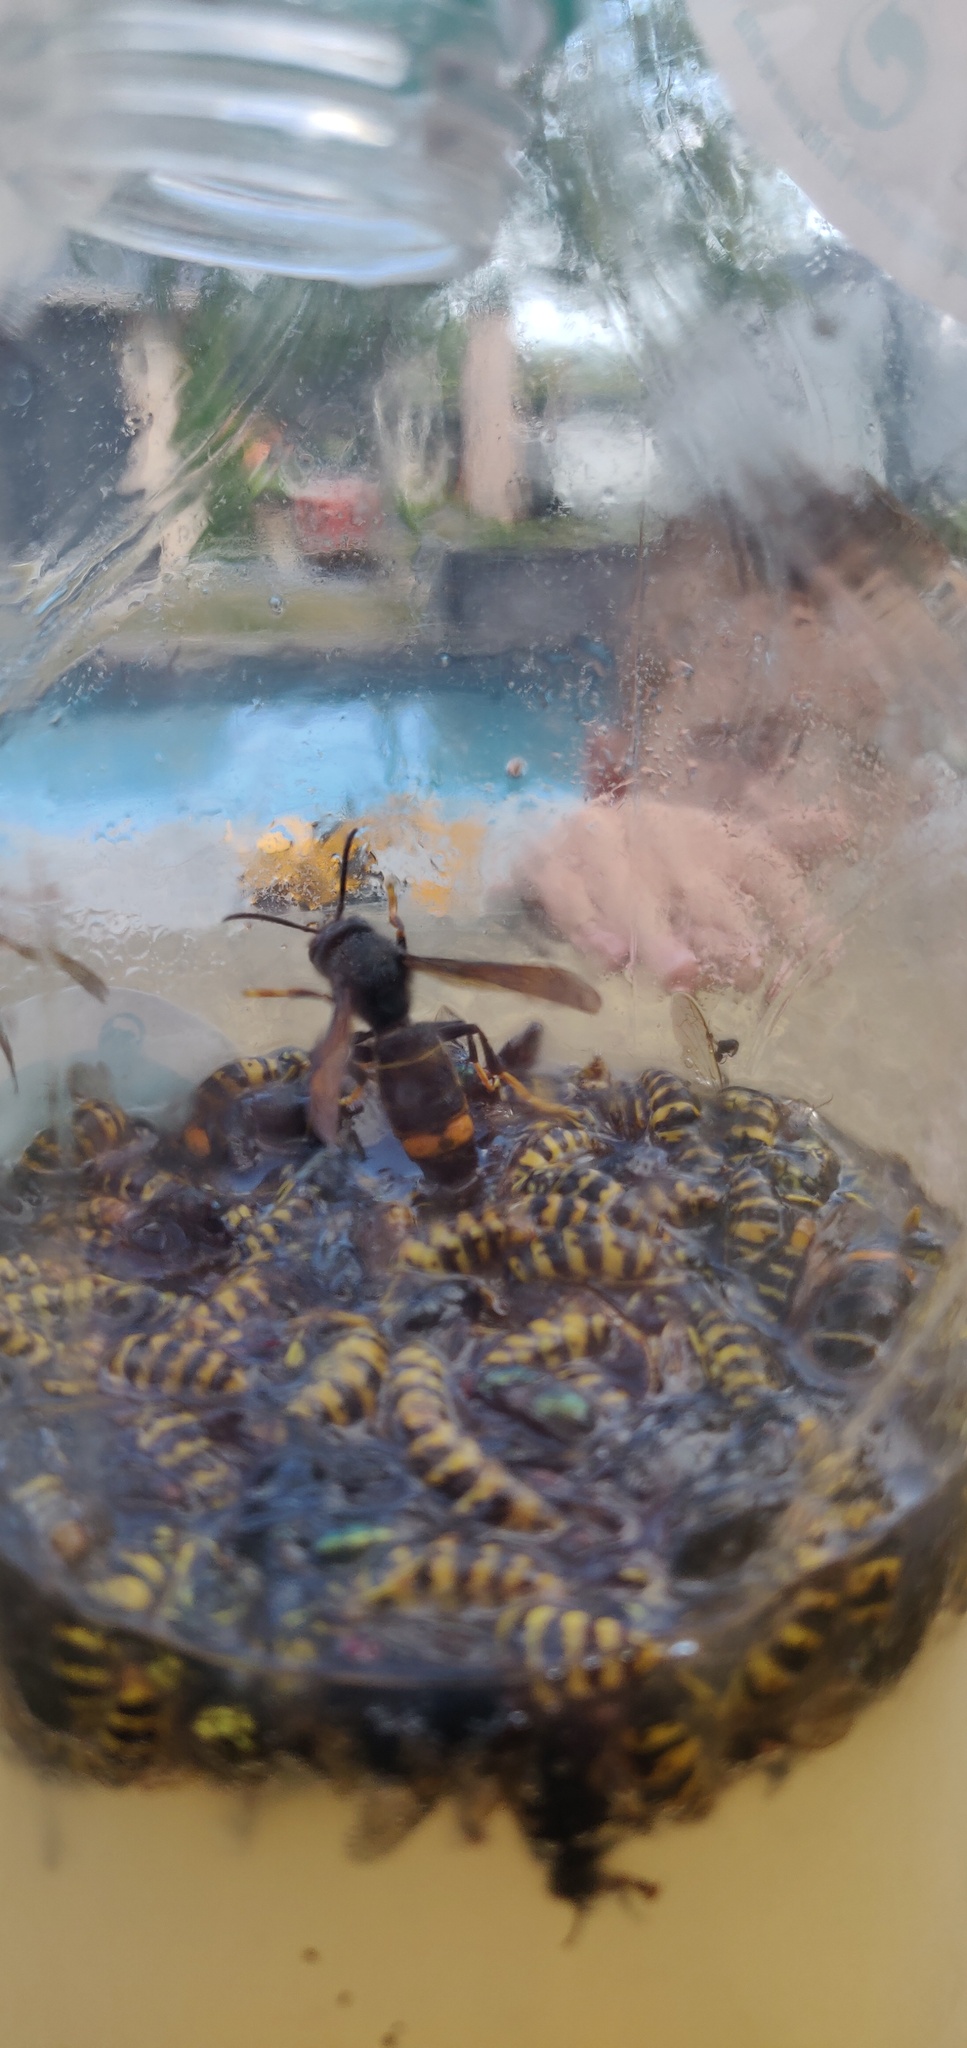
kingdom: Animalia
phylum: Arthropoda
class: Insecta
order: Hymenoptera
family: Vespidae
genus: Vespa
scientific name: Vespa velutina
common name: Asian hornet
